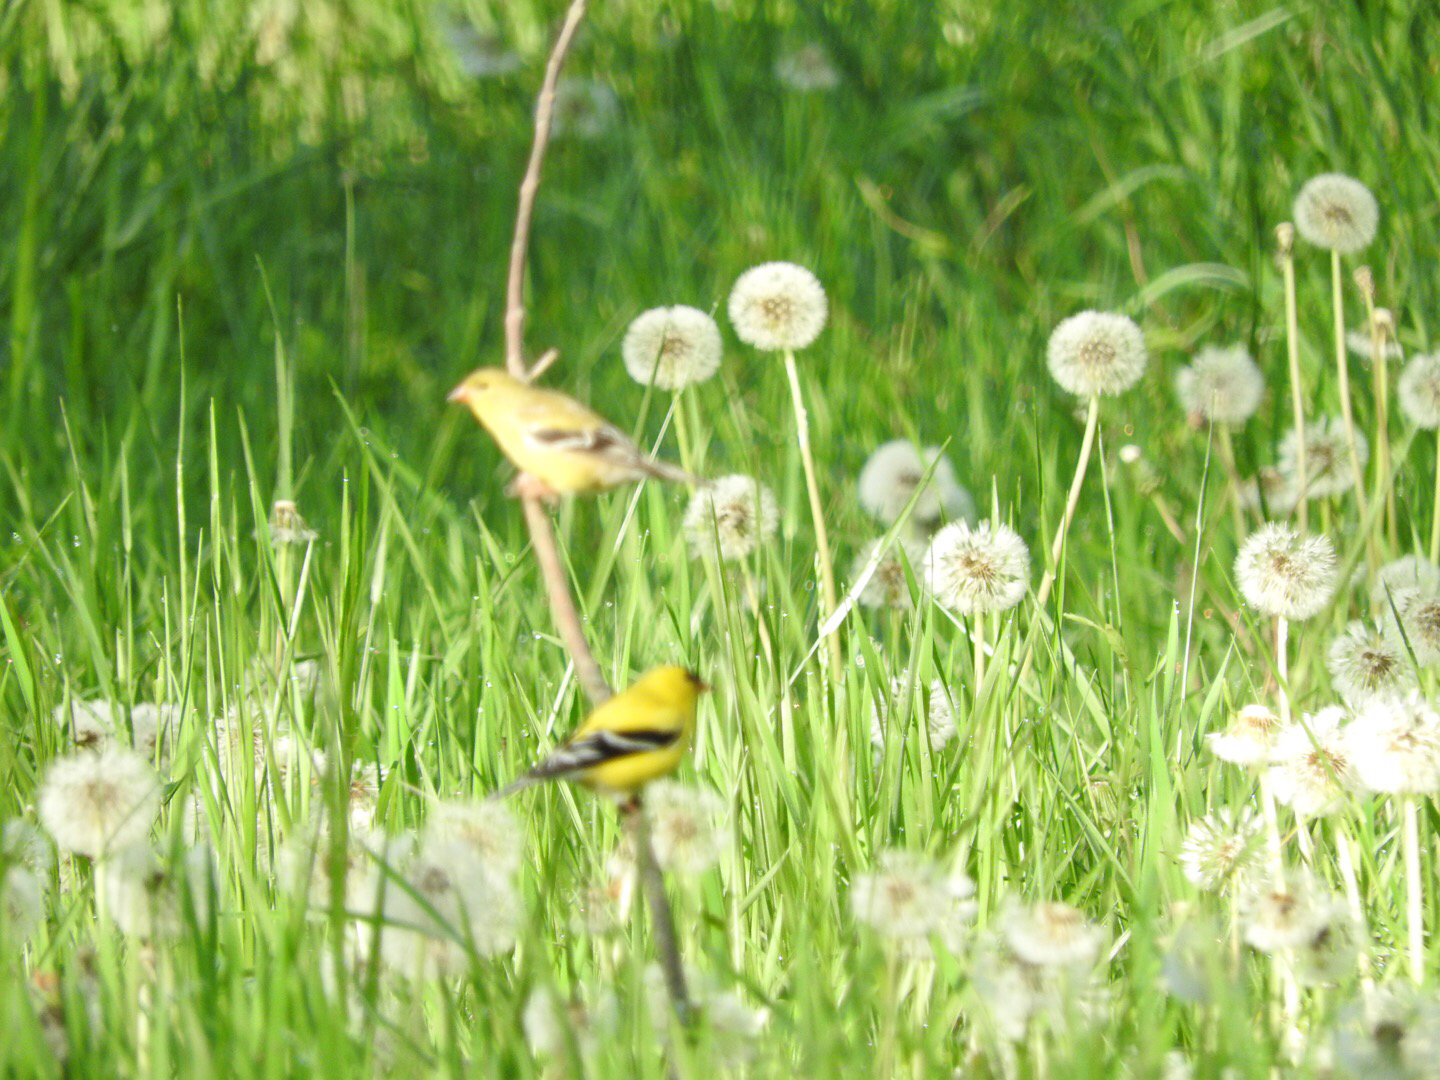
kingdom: Animalia
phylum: Chordata
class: Aves
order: Passeriformes
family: Fringillidae
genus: Spinus
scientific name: Spinus tristis
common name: American goldfinch
